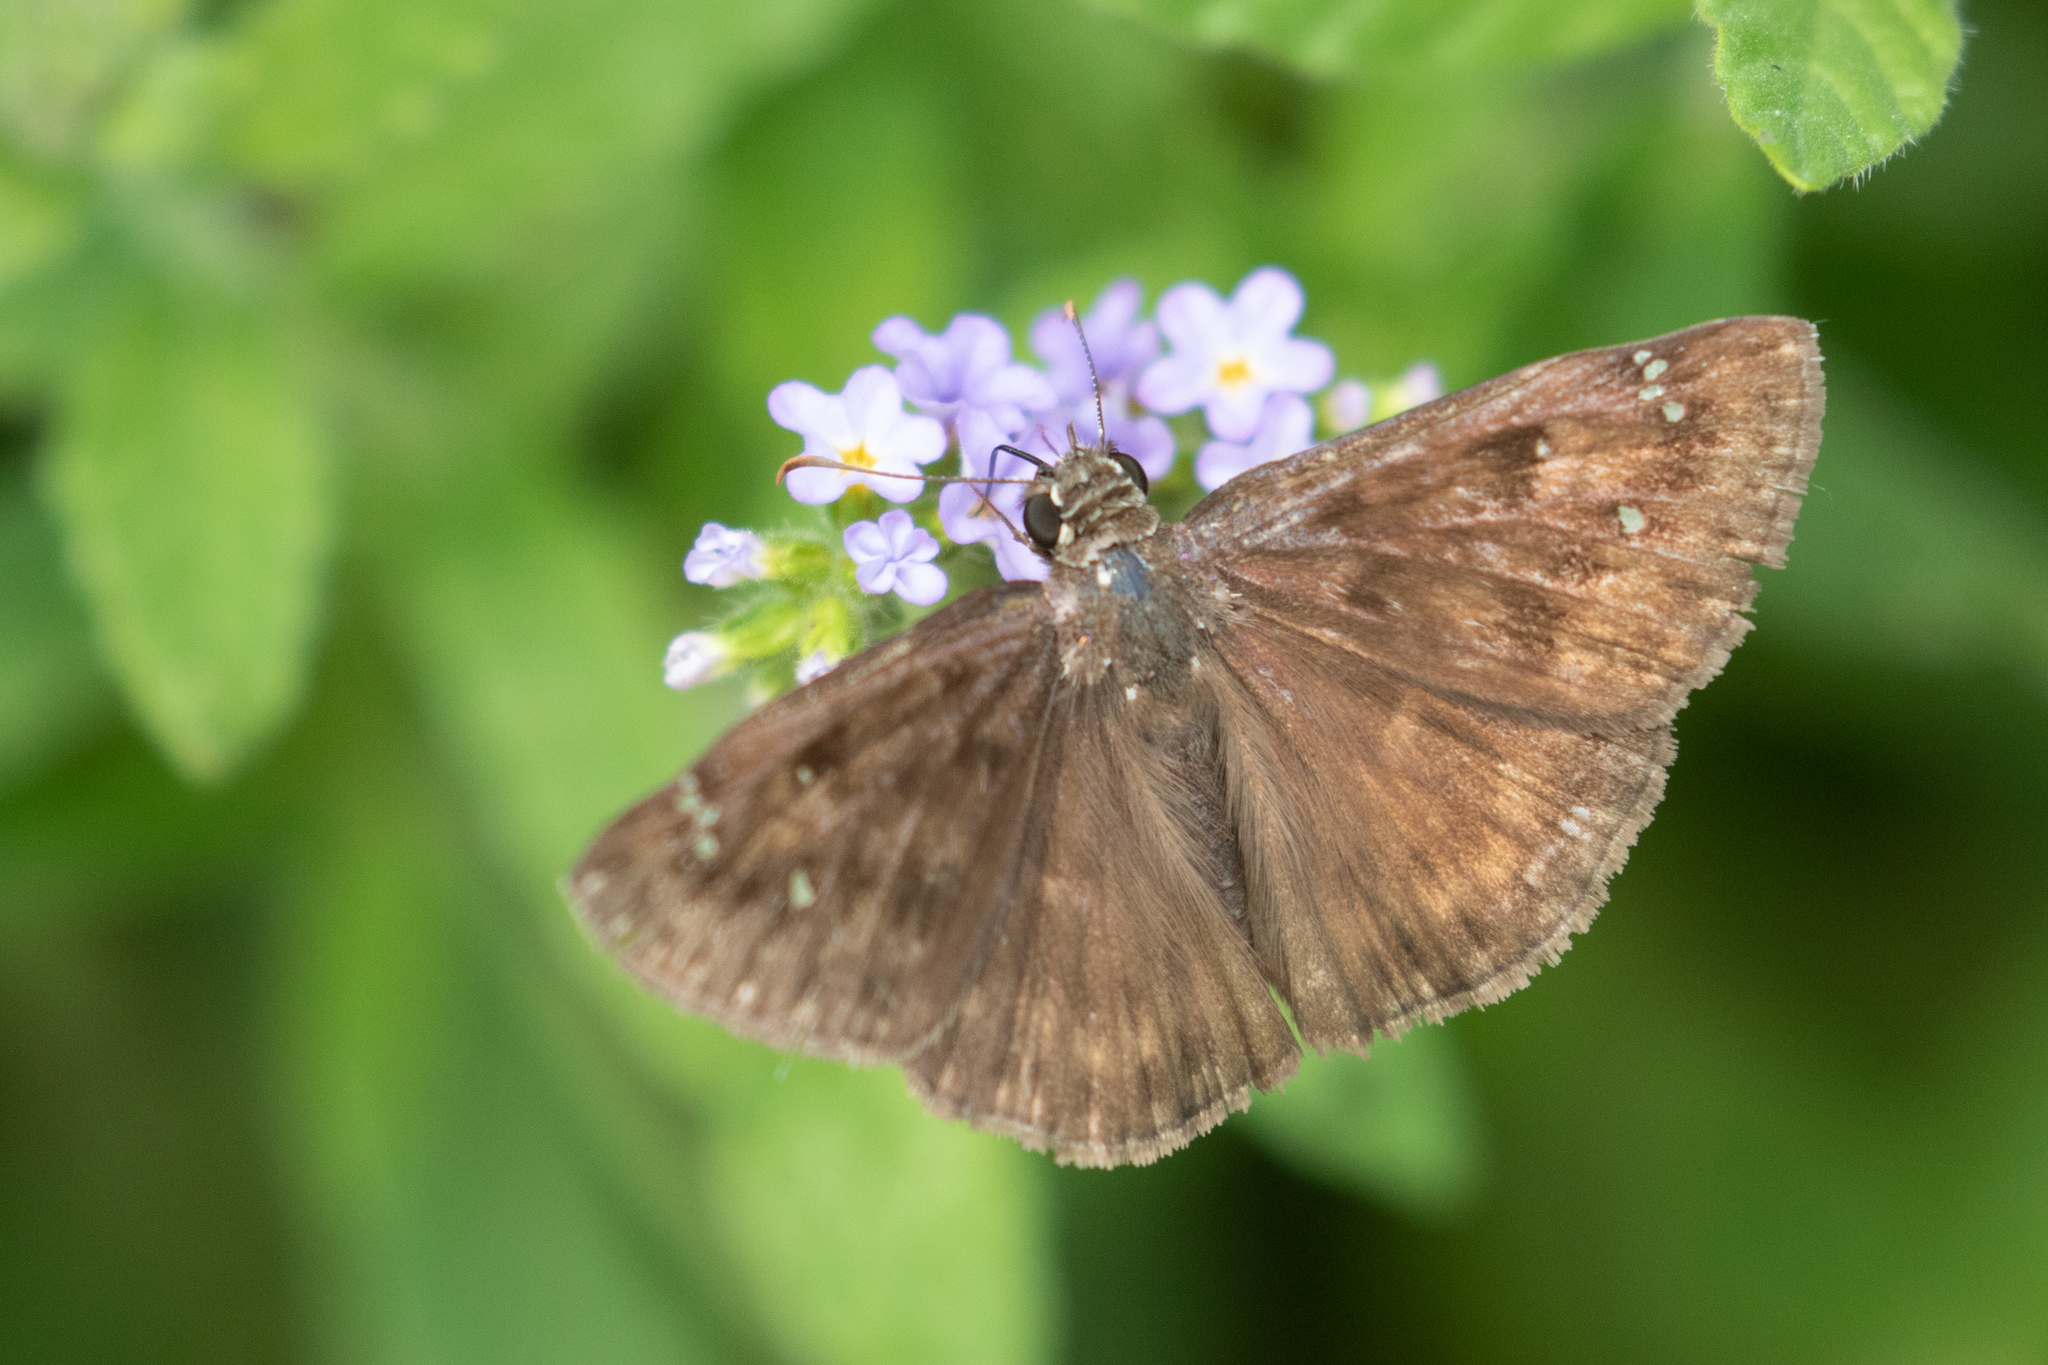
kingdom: Animalia
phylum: Arthropoda
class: Insecta
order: Lepidoptera
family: Hesperiidae
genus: Erynnis
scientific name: Erynnis horatius
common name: Horace's duskywing
